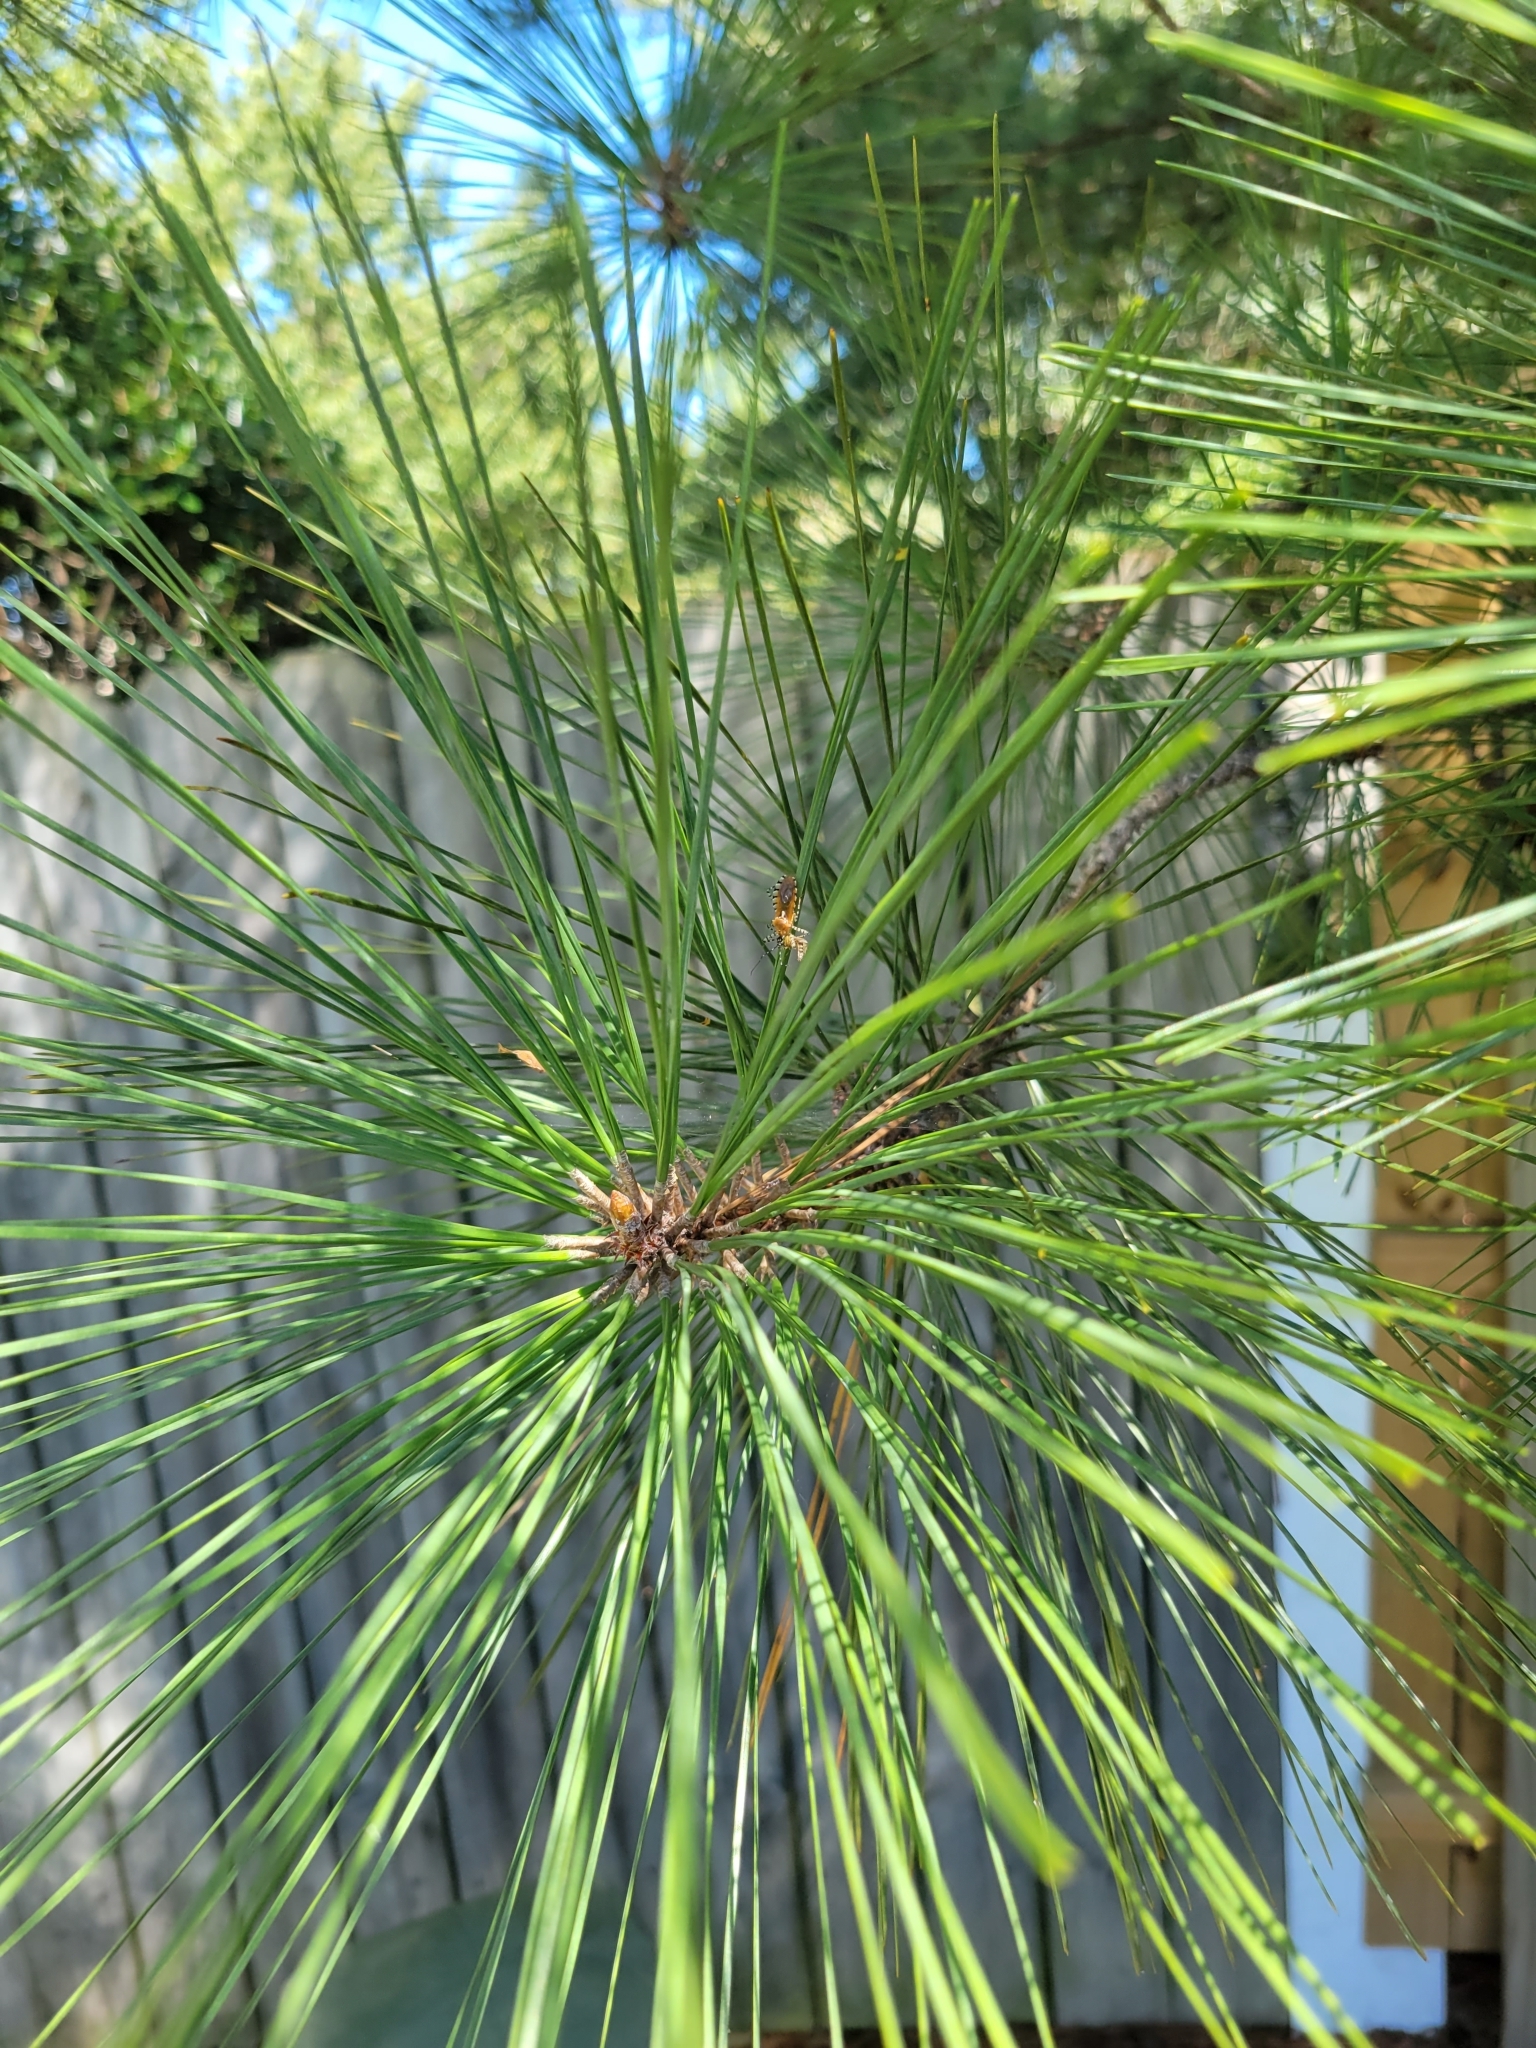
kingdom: Plantae
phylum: Tracheophyta
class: Pinopsida
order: Pinales
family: Pinaceae
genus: Pinus
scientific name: Pinus taeda
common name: Loblolly pine
